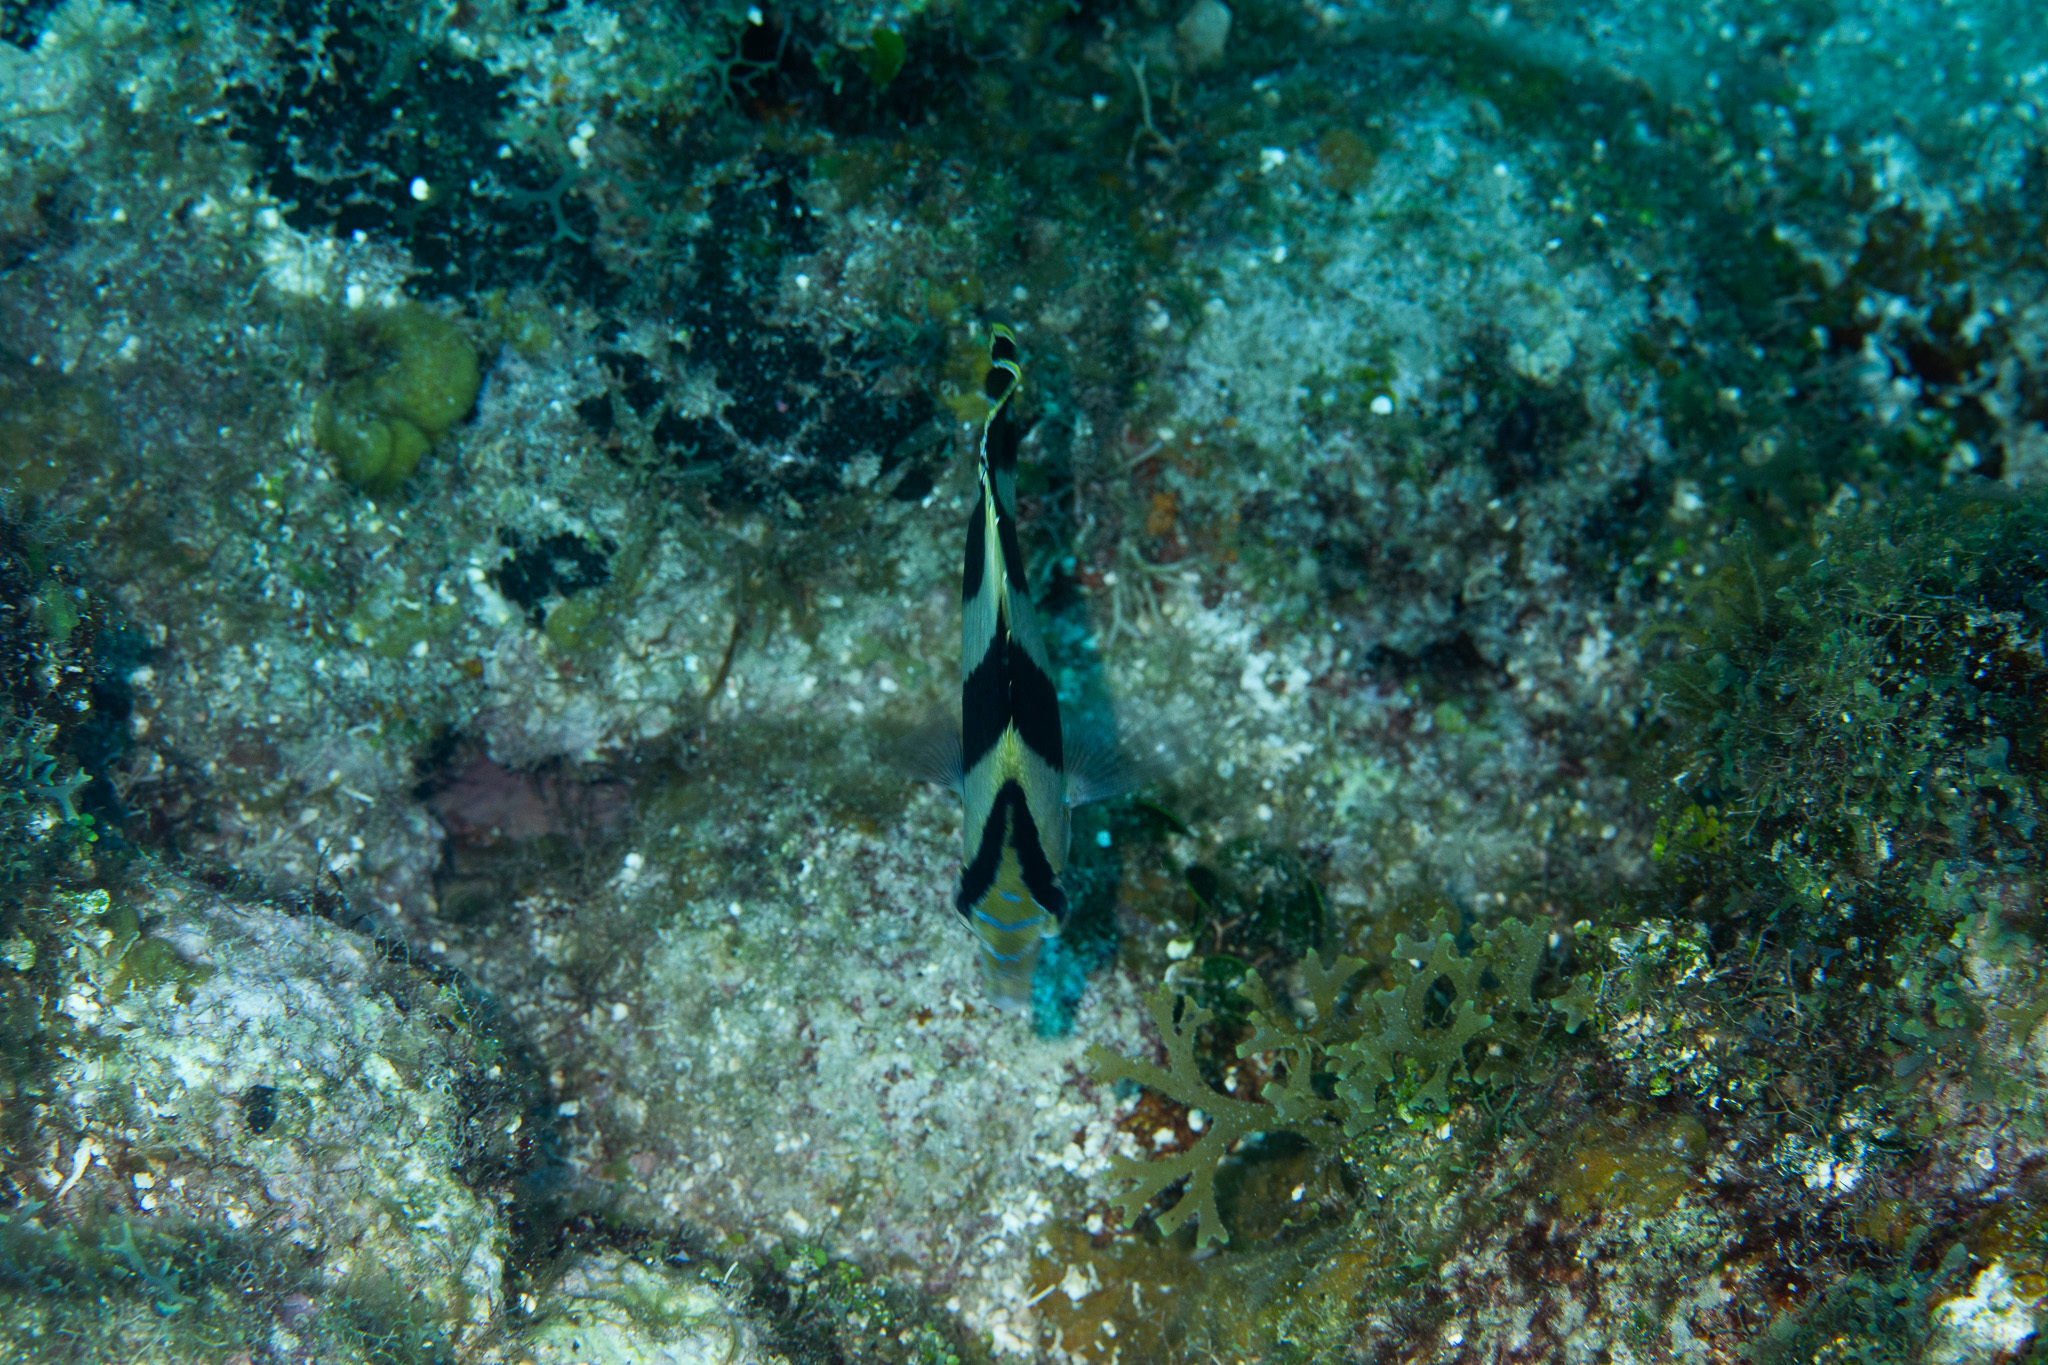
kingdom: Animalia
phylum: Chordata
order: Perciformes
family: Chaetodontidae
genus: Chaetodon
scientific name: Chaetodon striatus
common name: Banded butterflyfish
